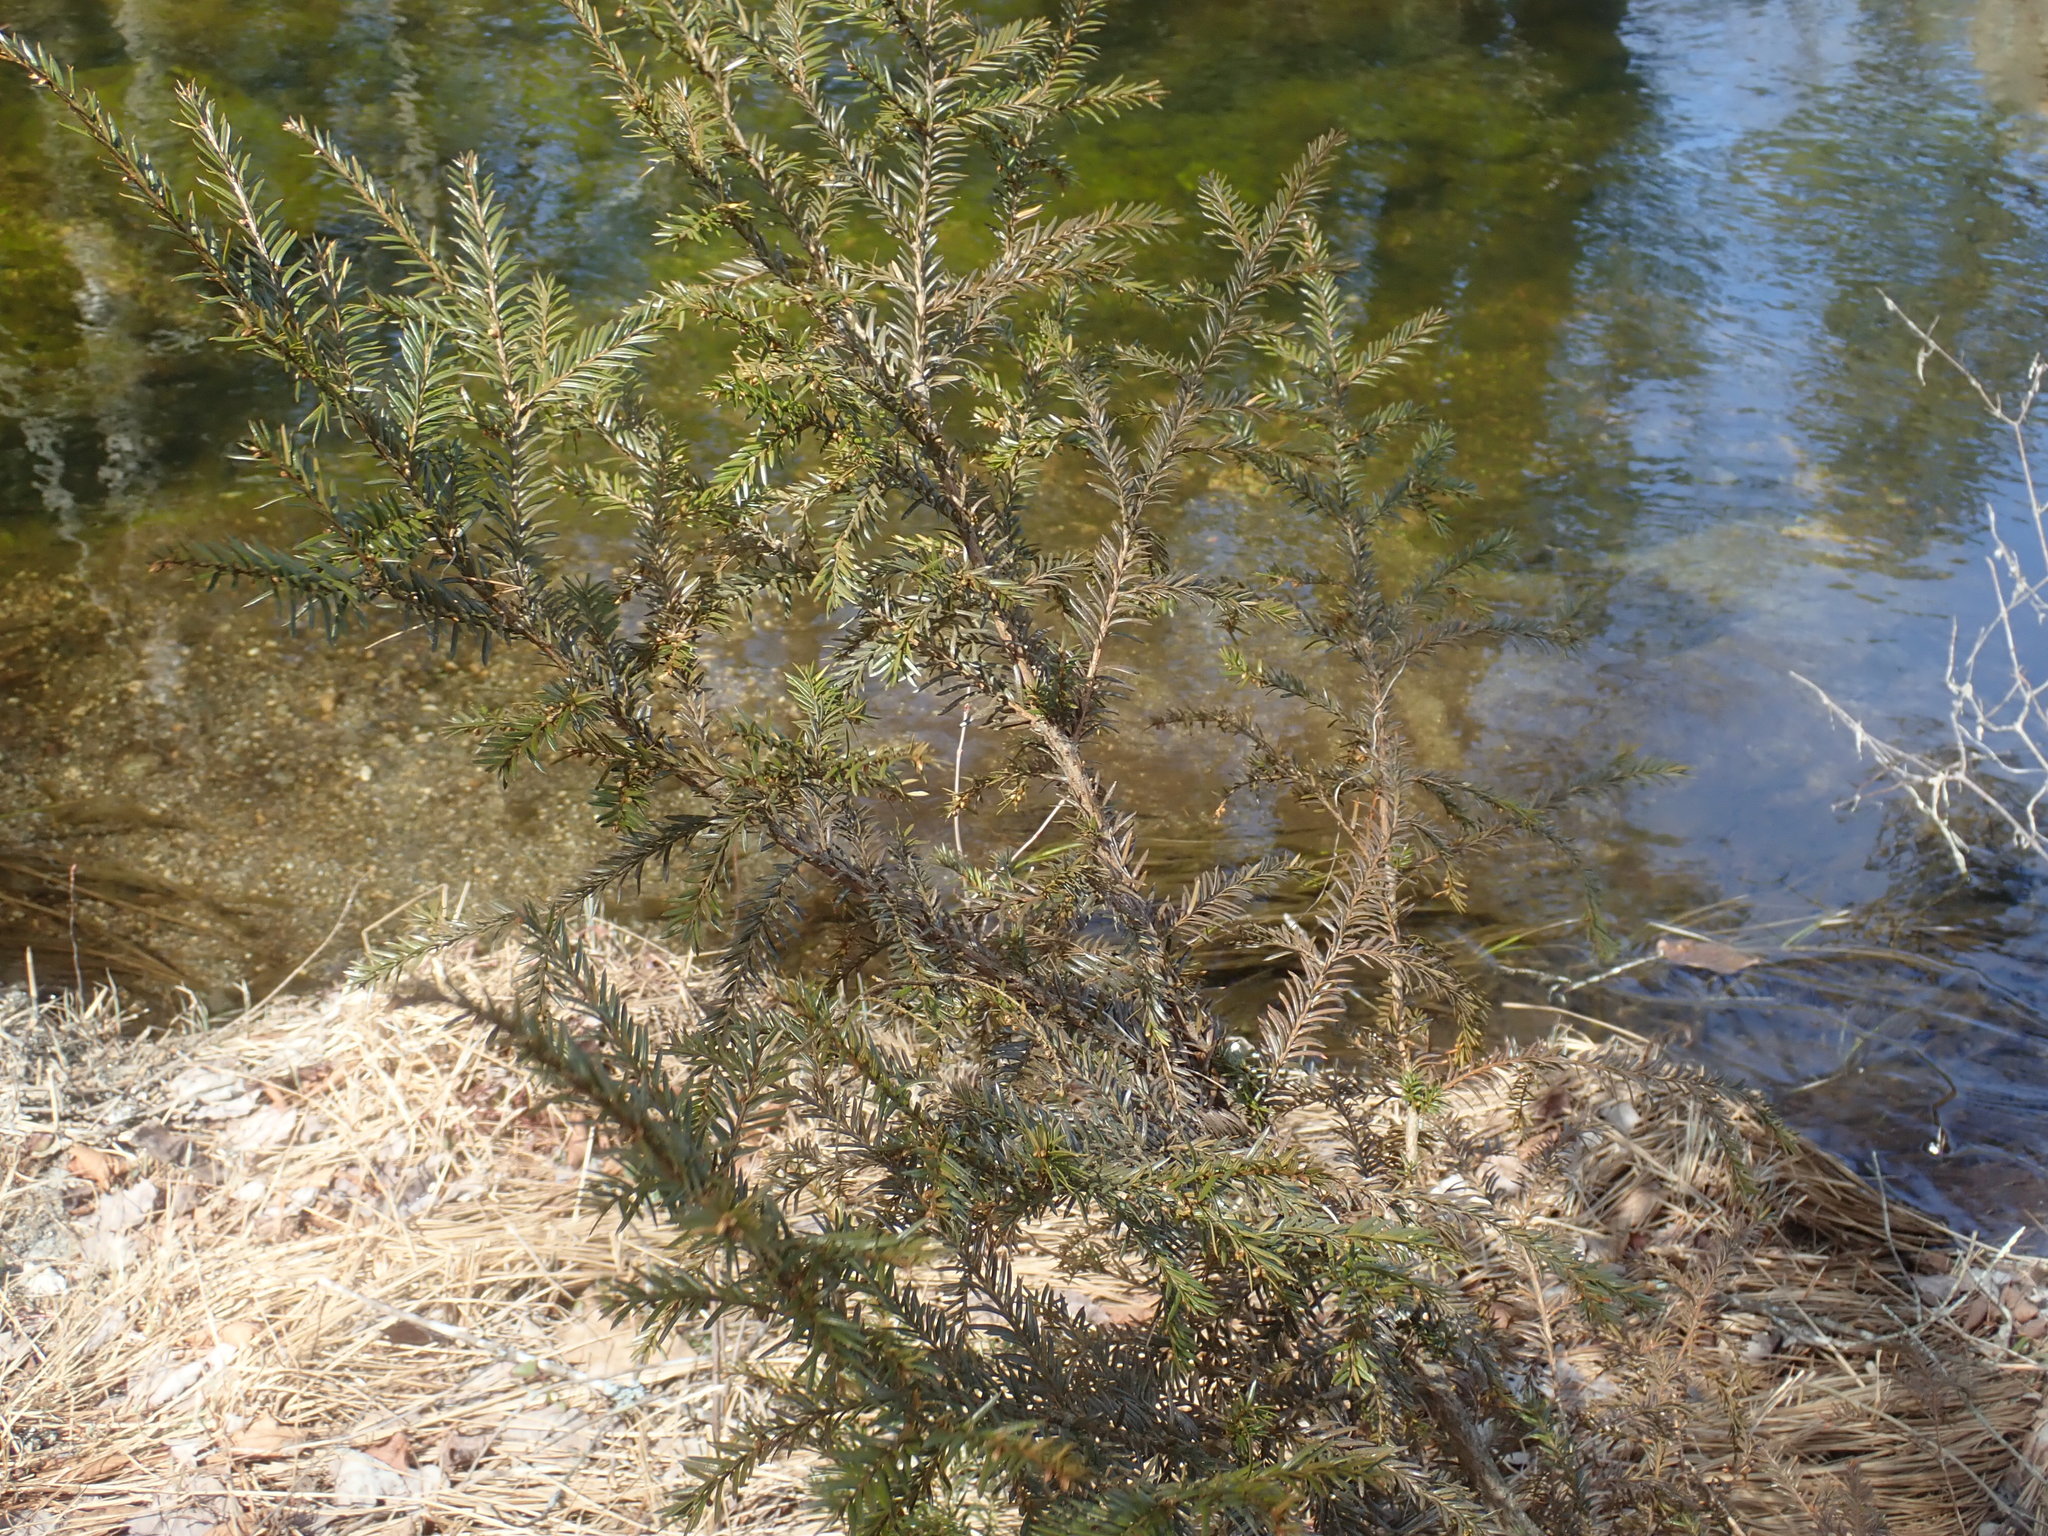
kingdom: Plantae
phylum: Tracheophyta
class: Pinopsida
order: Pinales
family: Taxaceae
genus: Taxus
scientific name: Taxus canadensis
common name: American yew
